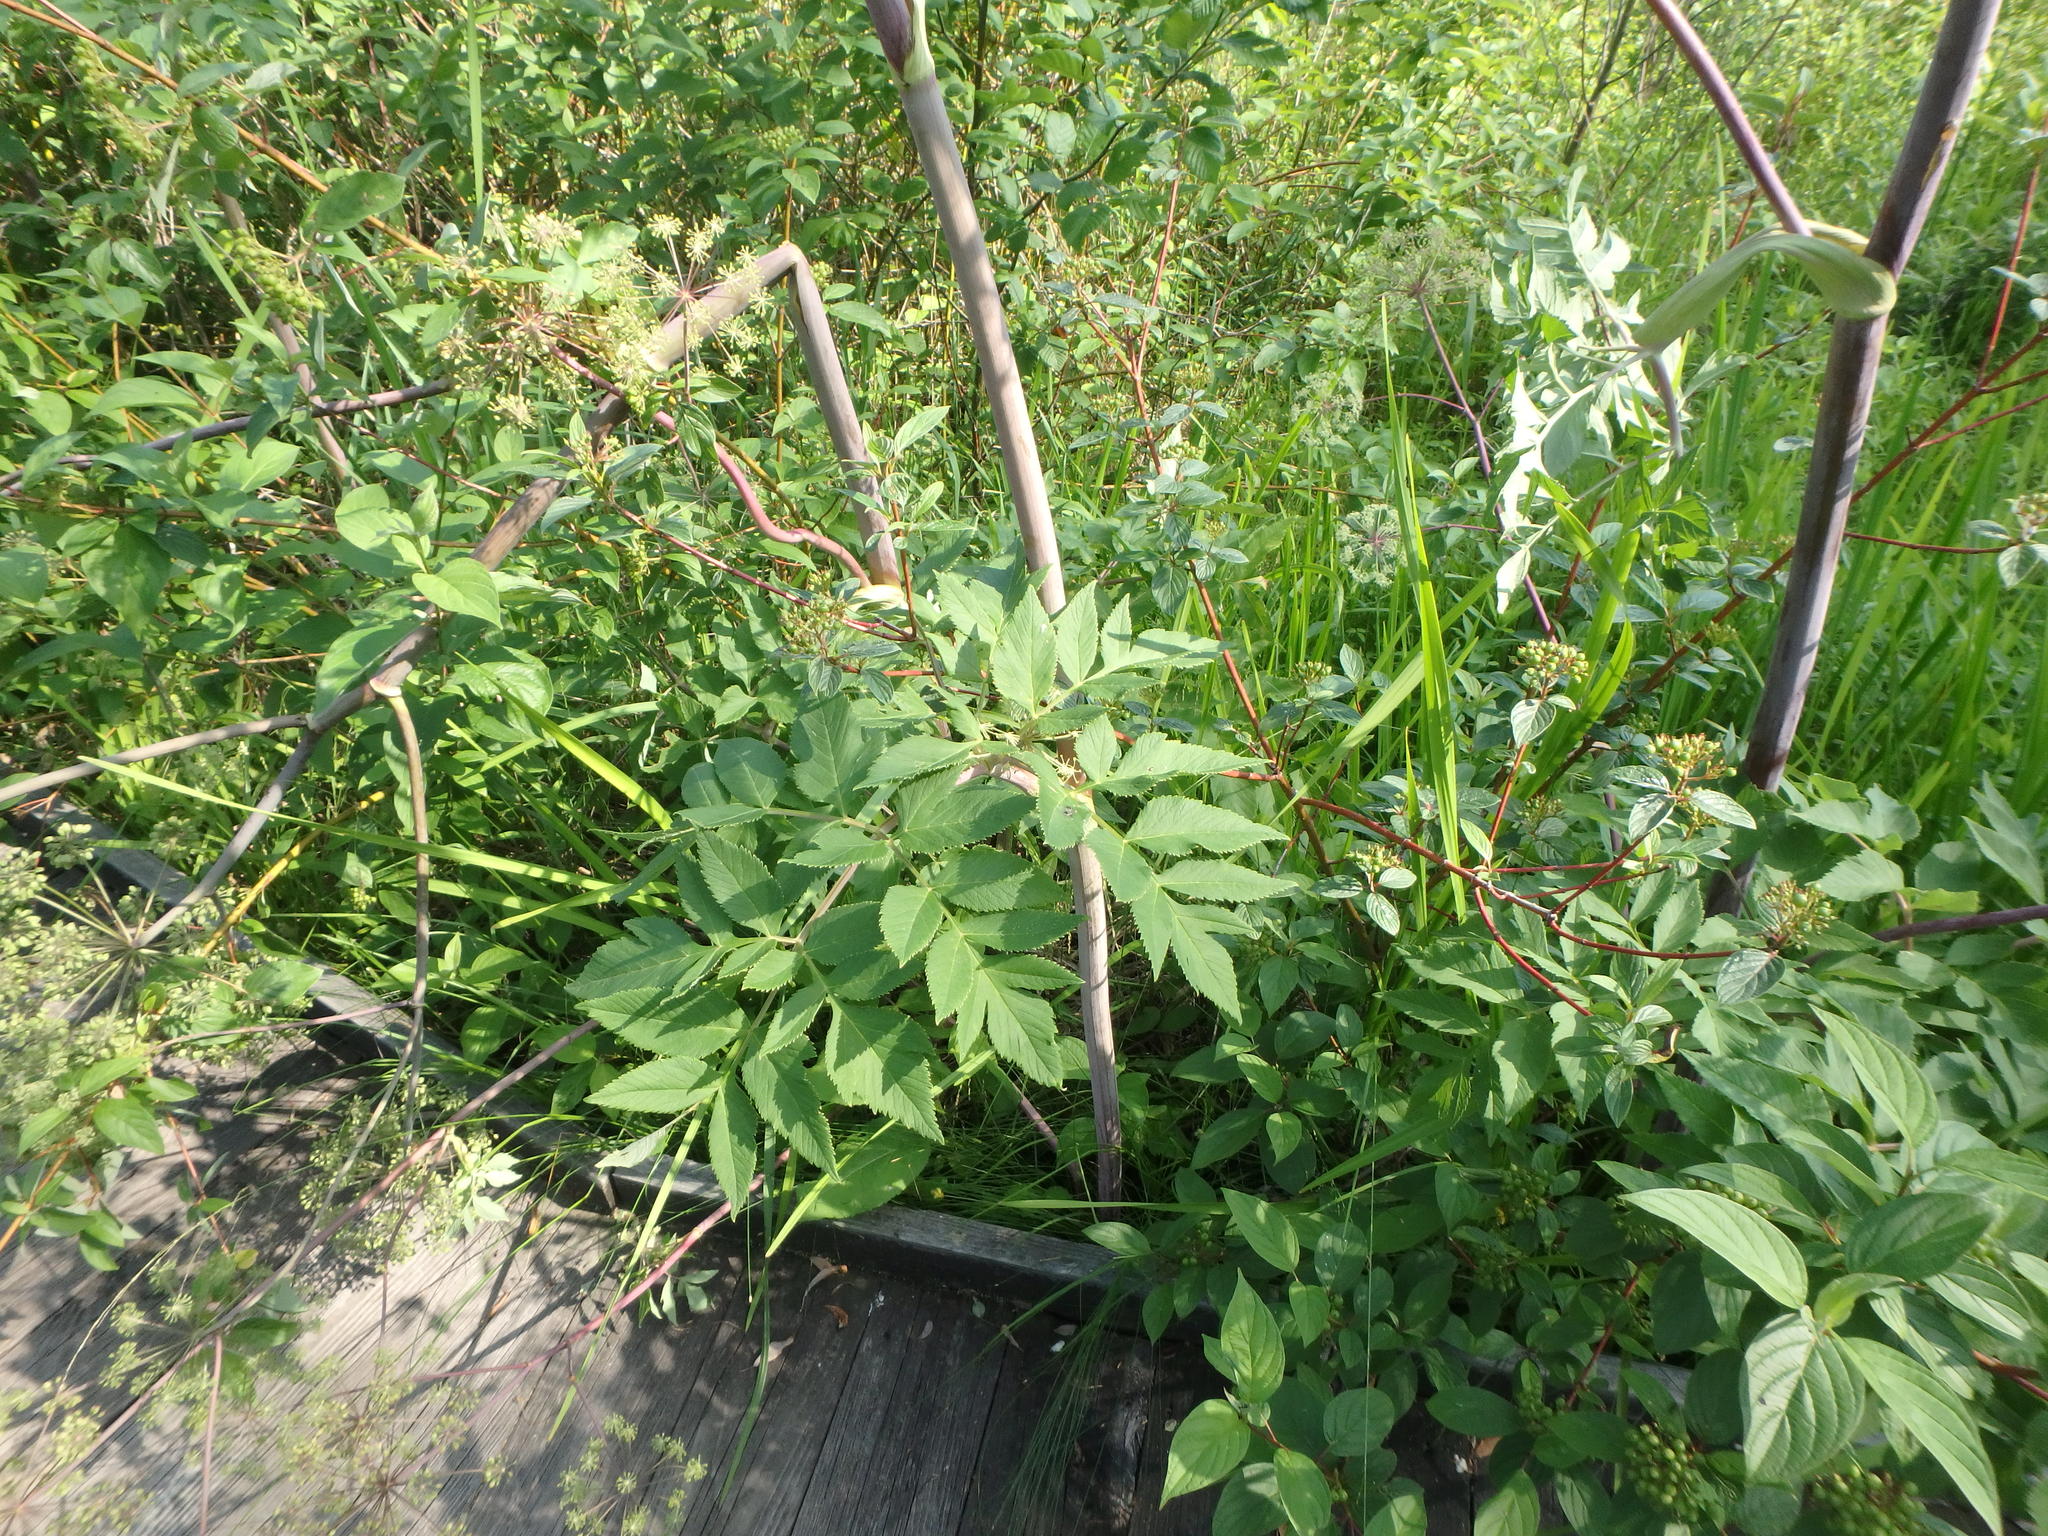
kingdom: Plantae
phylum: Tracheophyta
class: Magnoliopsida
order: Apiales
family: Apiaceae
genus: Angelica
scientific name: Angelica atropurpurea
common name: Great angelica
